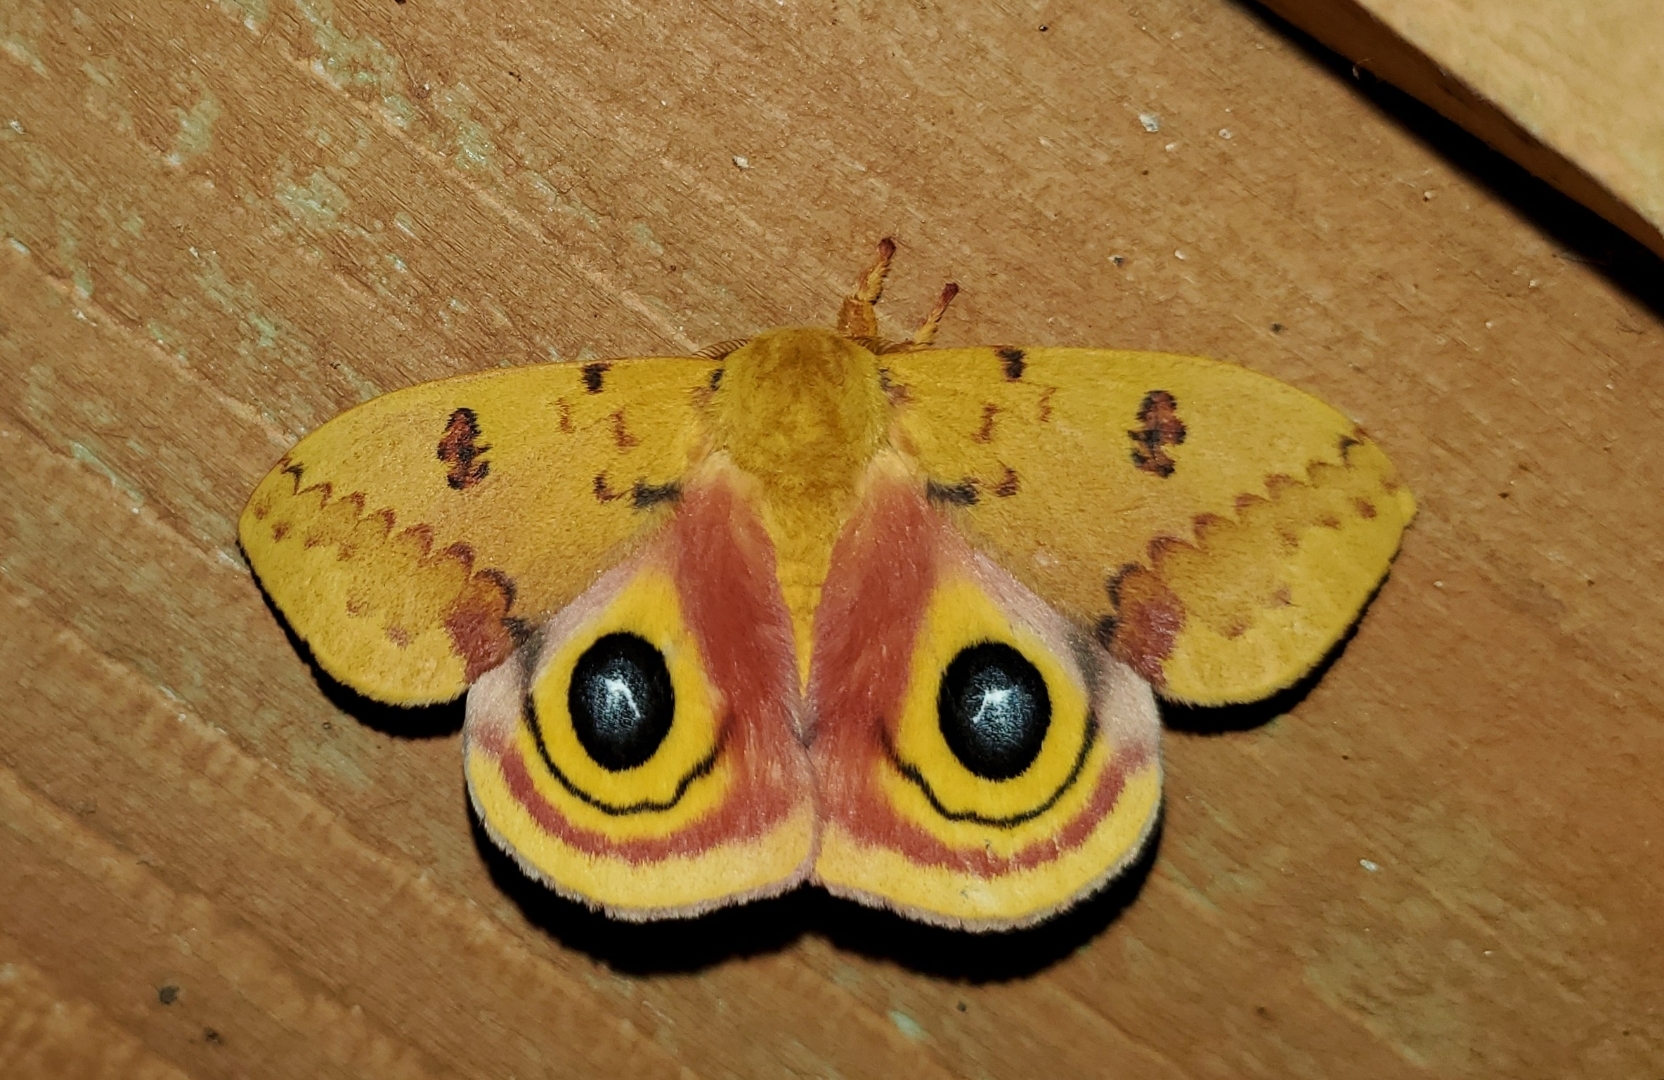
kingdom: Animalia
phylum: Arthropoda
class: Insecta
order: Lepidoptera
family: Saturniidae
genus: Automeris
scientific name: Automeris io
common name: Io moth
